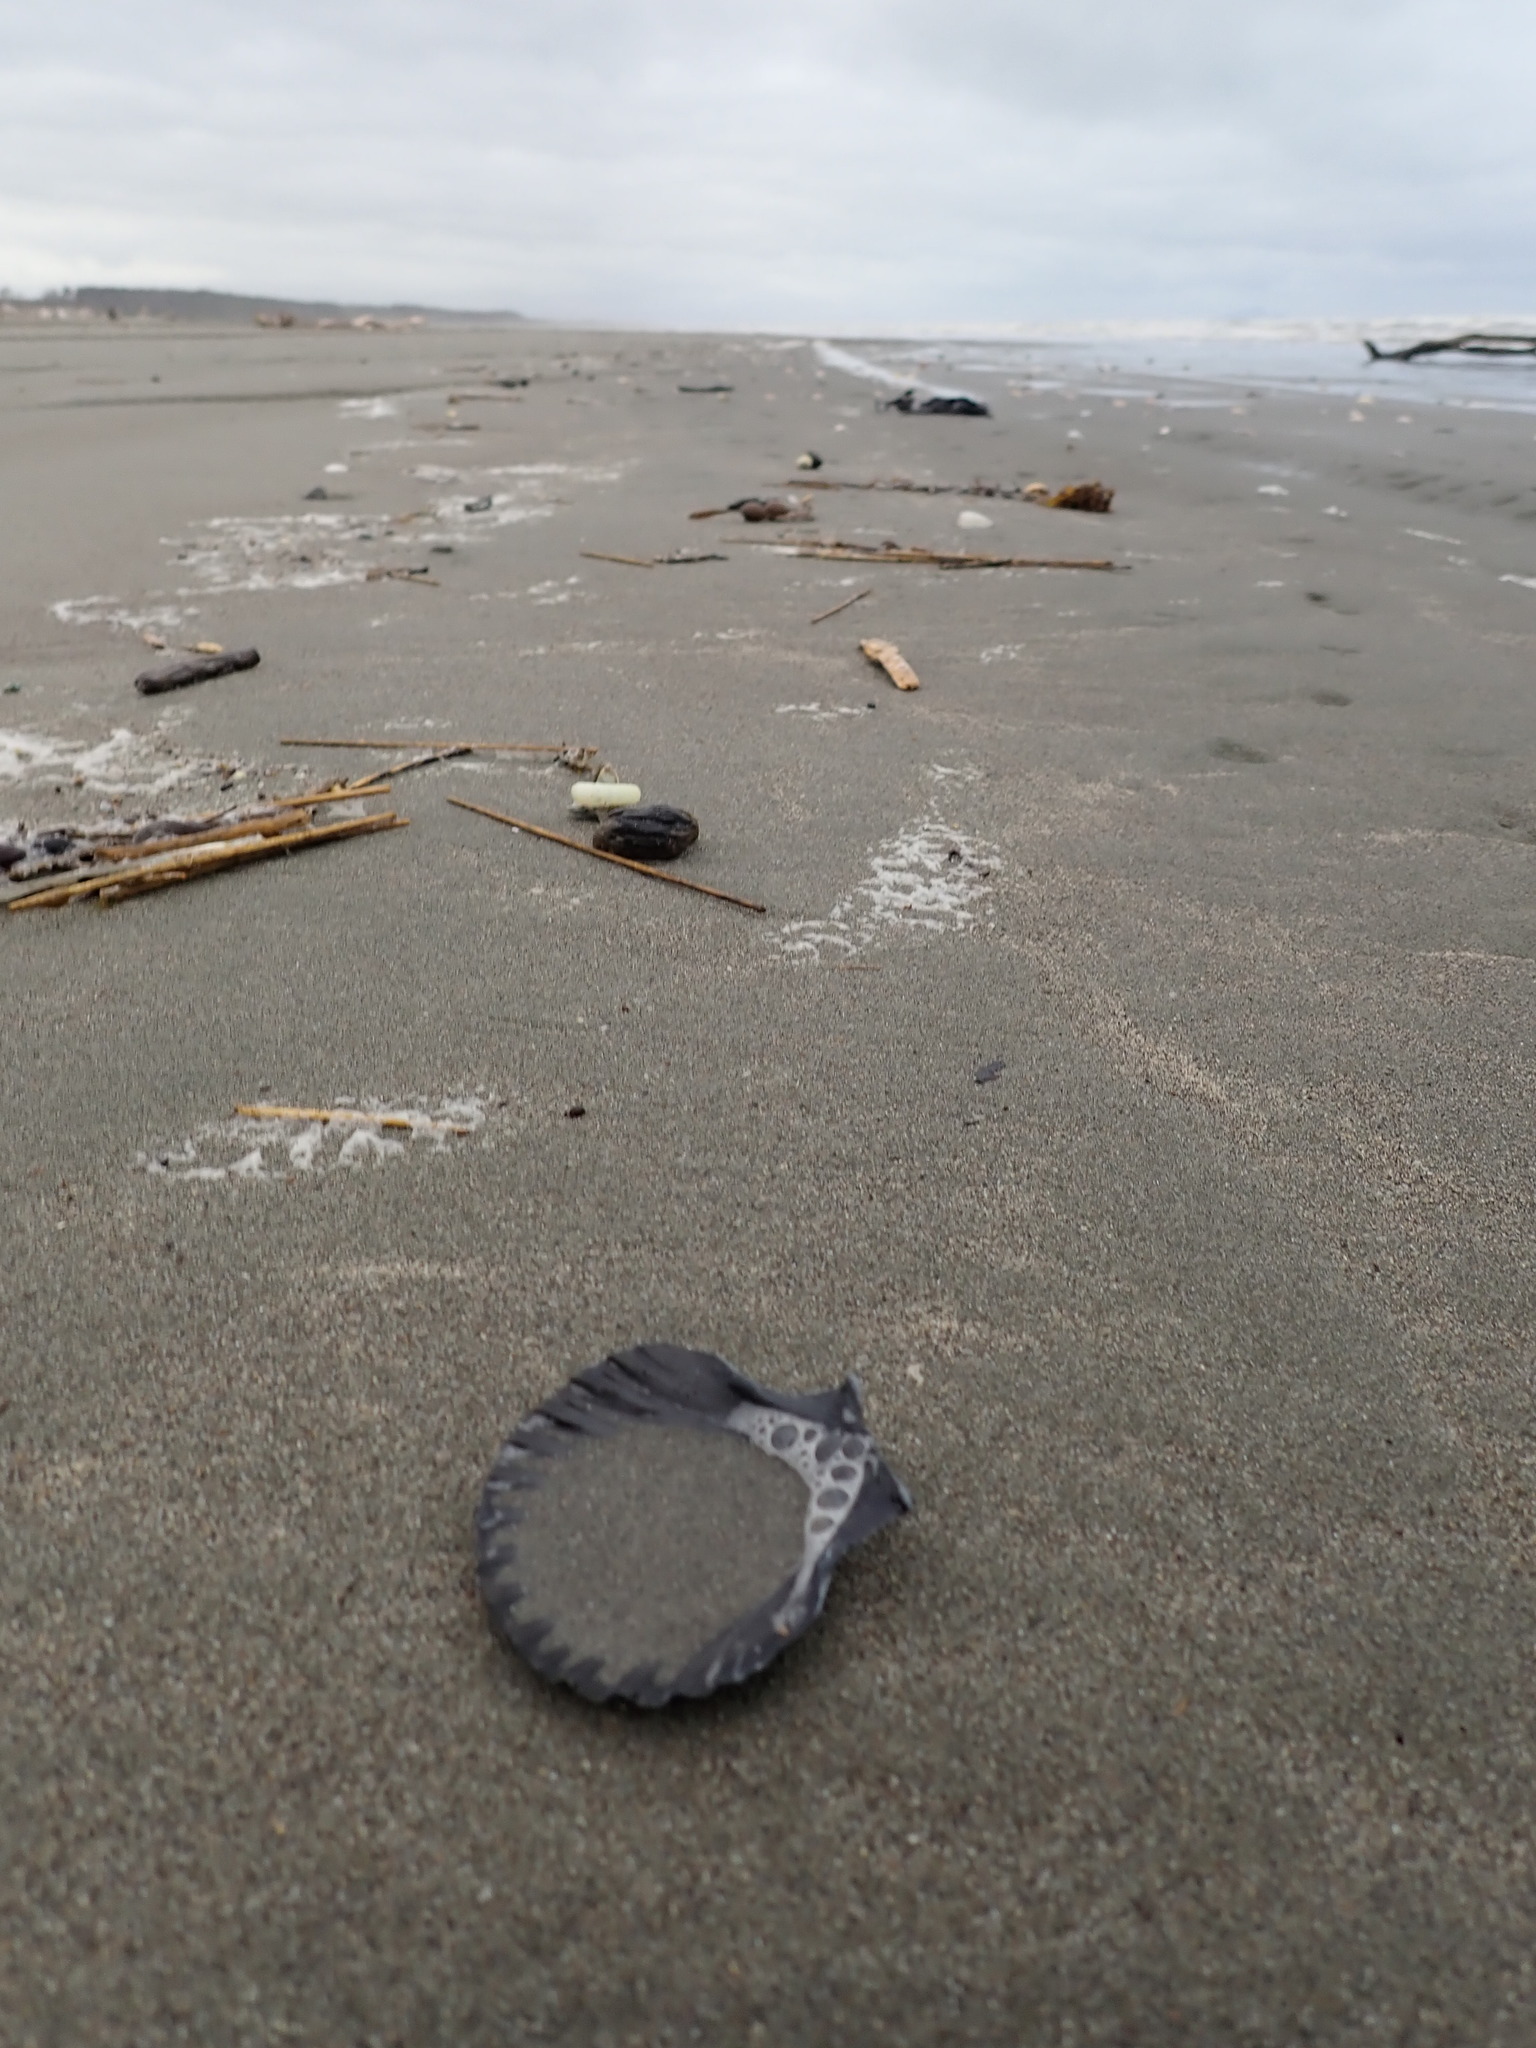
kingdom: Animalia
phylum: Mollusca
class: Bivalvia
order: Pectinida
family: Pectinidae
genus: Pecten
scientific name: Pecten novaezelandiae
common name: New zealand scallop
